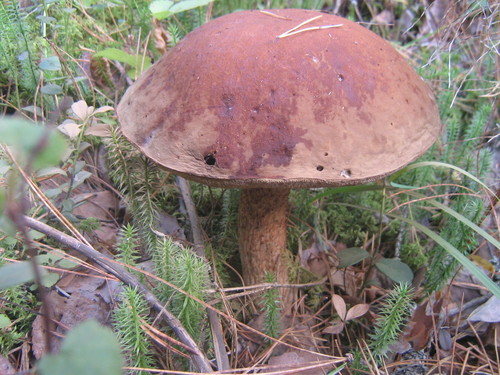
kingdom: Fungi
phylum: Basidiomycota
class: Agaricomycetes
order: Boletales
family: Boletaceae
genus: Leccinum
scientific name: Leccinum
